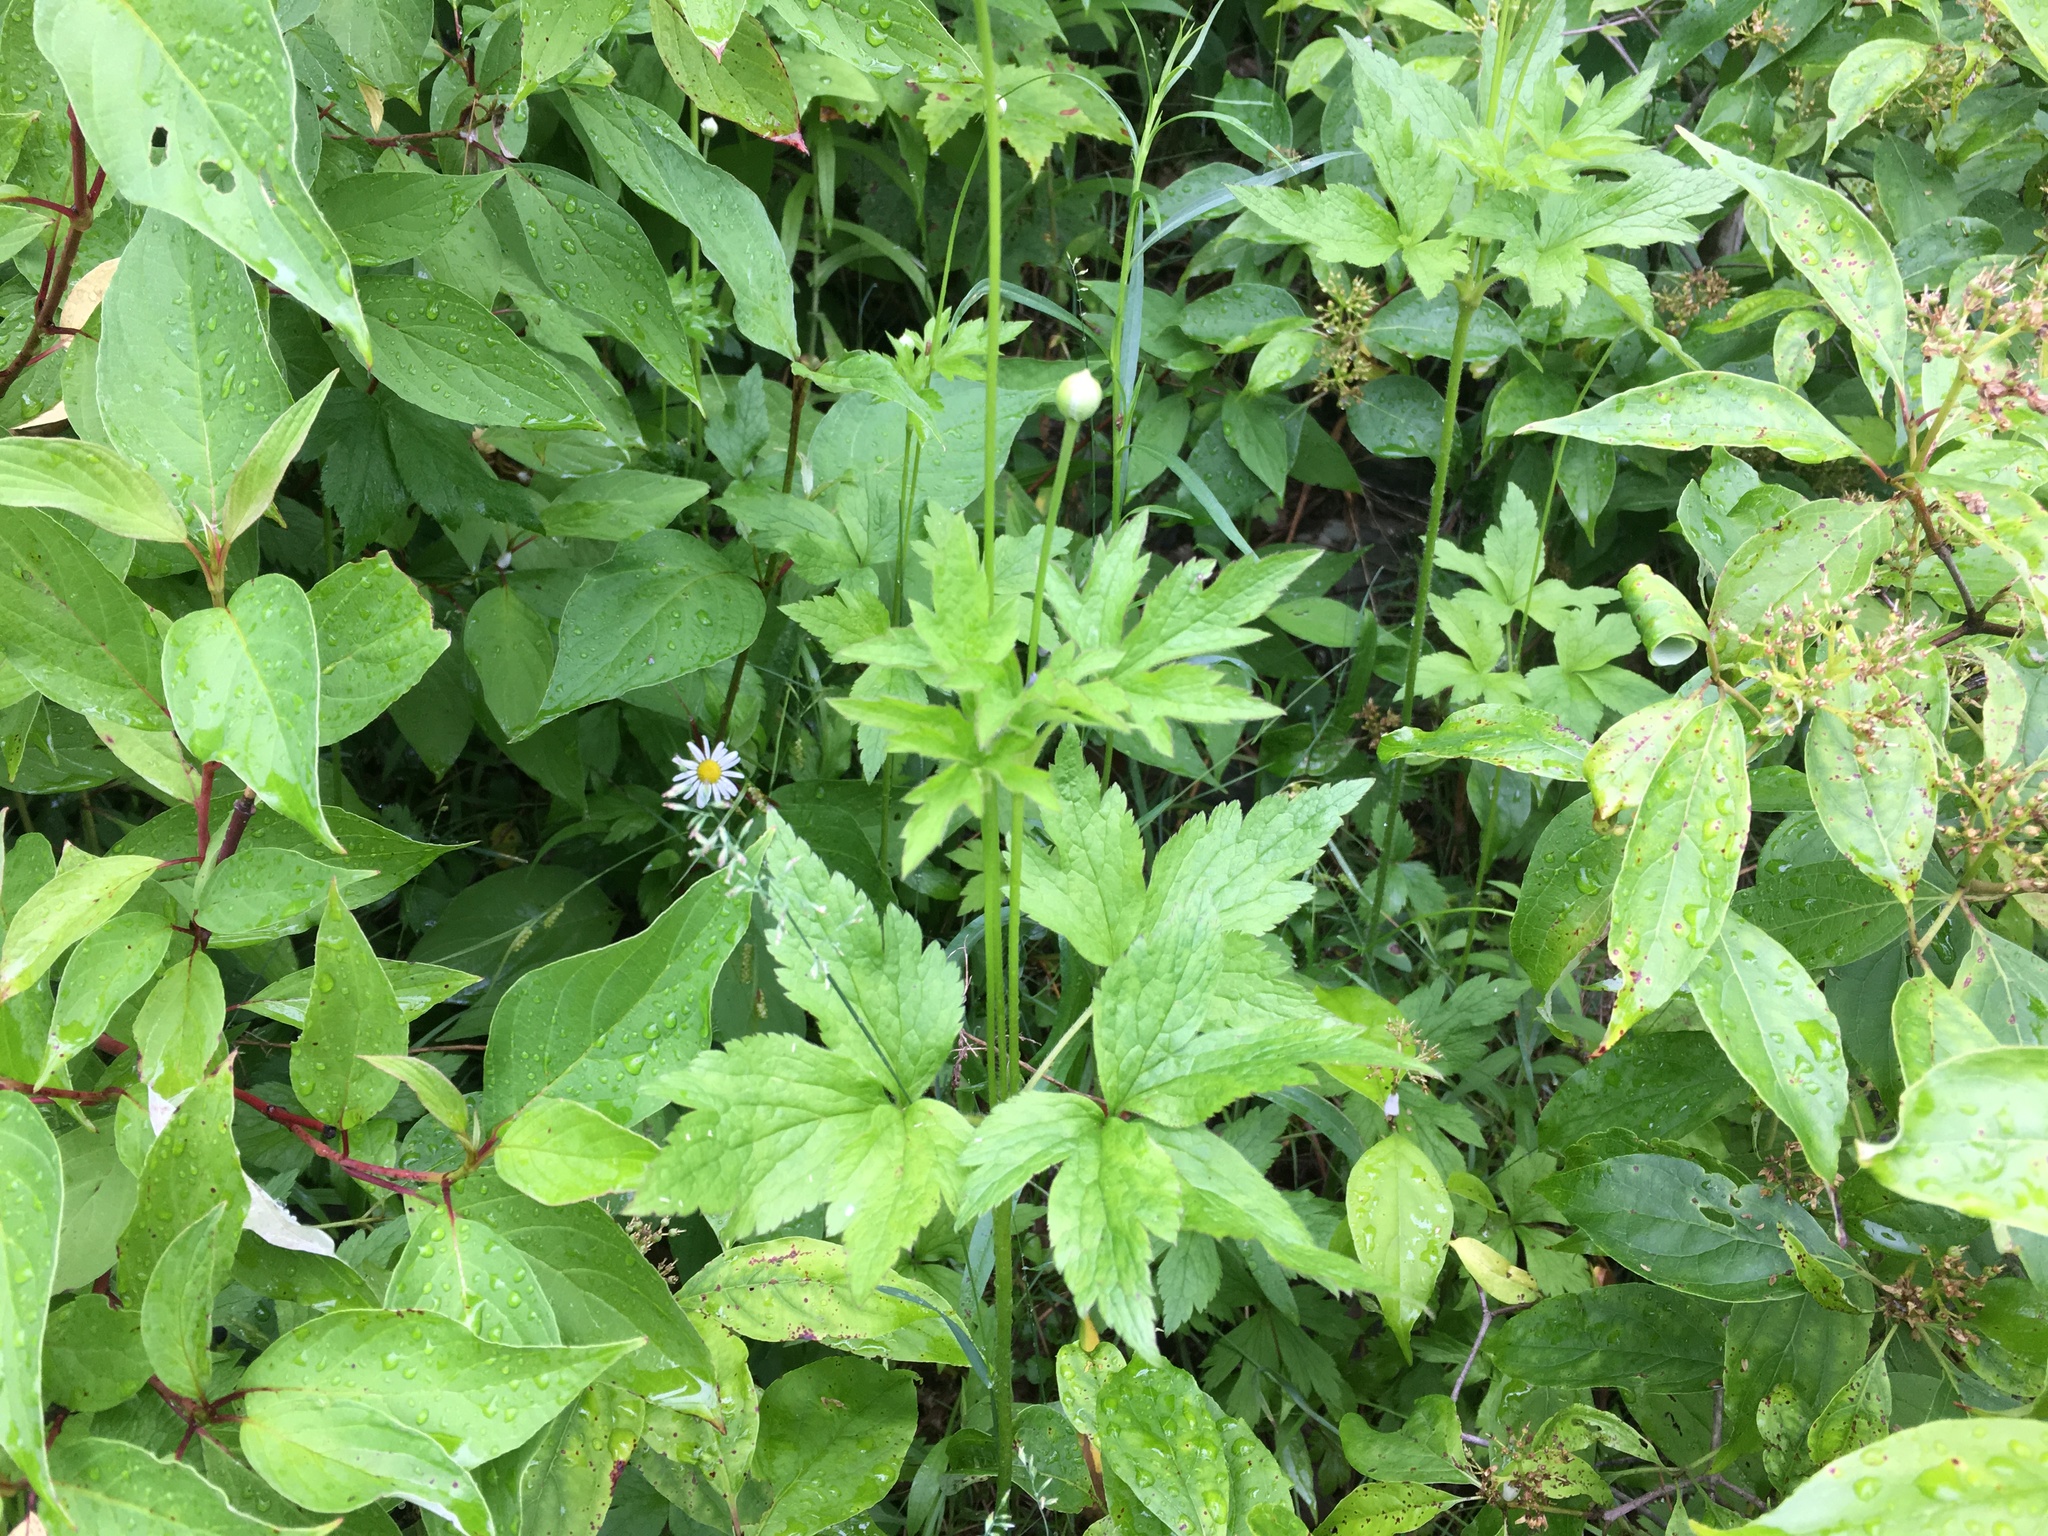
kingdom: Plantae
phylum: Tracheophyta
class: Magnoliopsida
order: Ranunculales
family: Ranunculaceae
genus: Anemone
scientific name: Anemone virginiana
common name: Tall anemone
